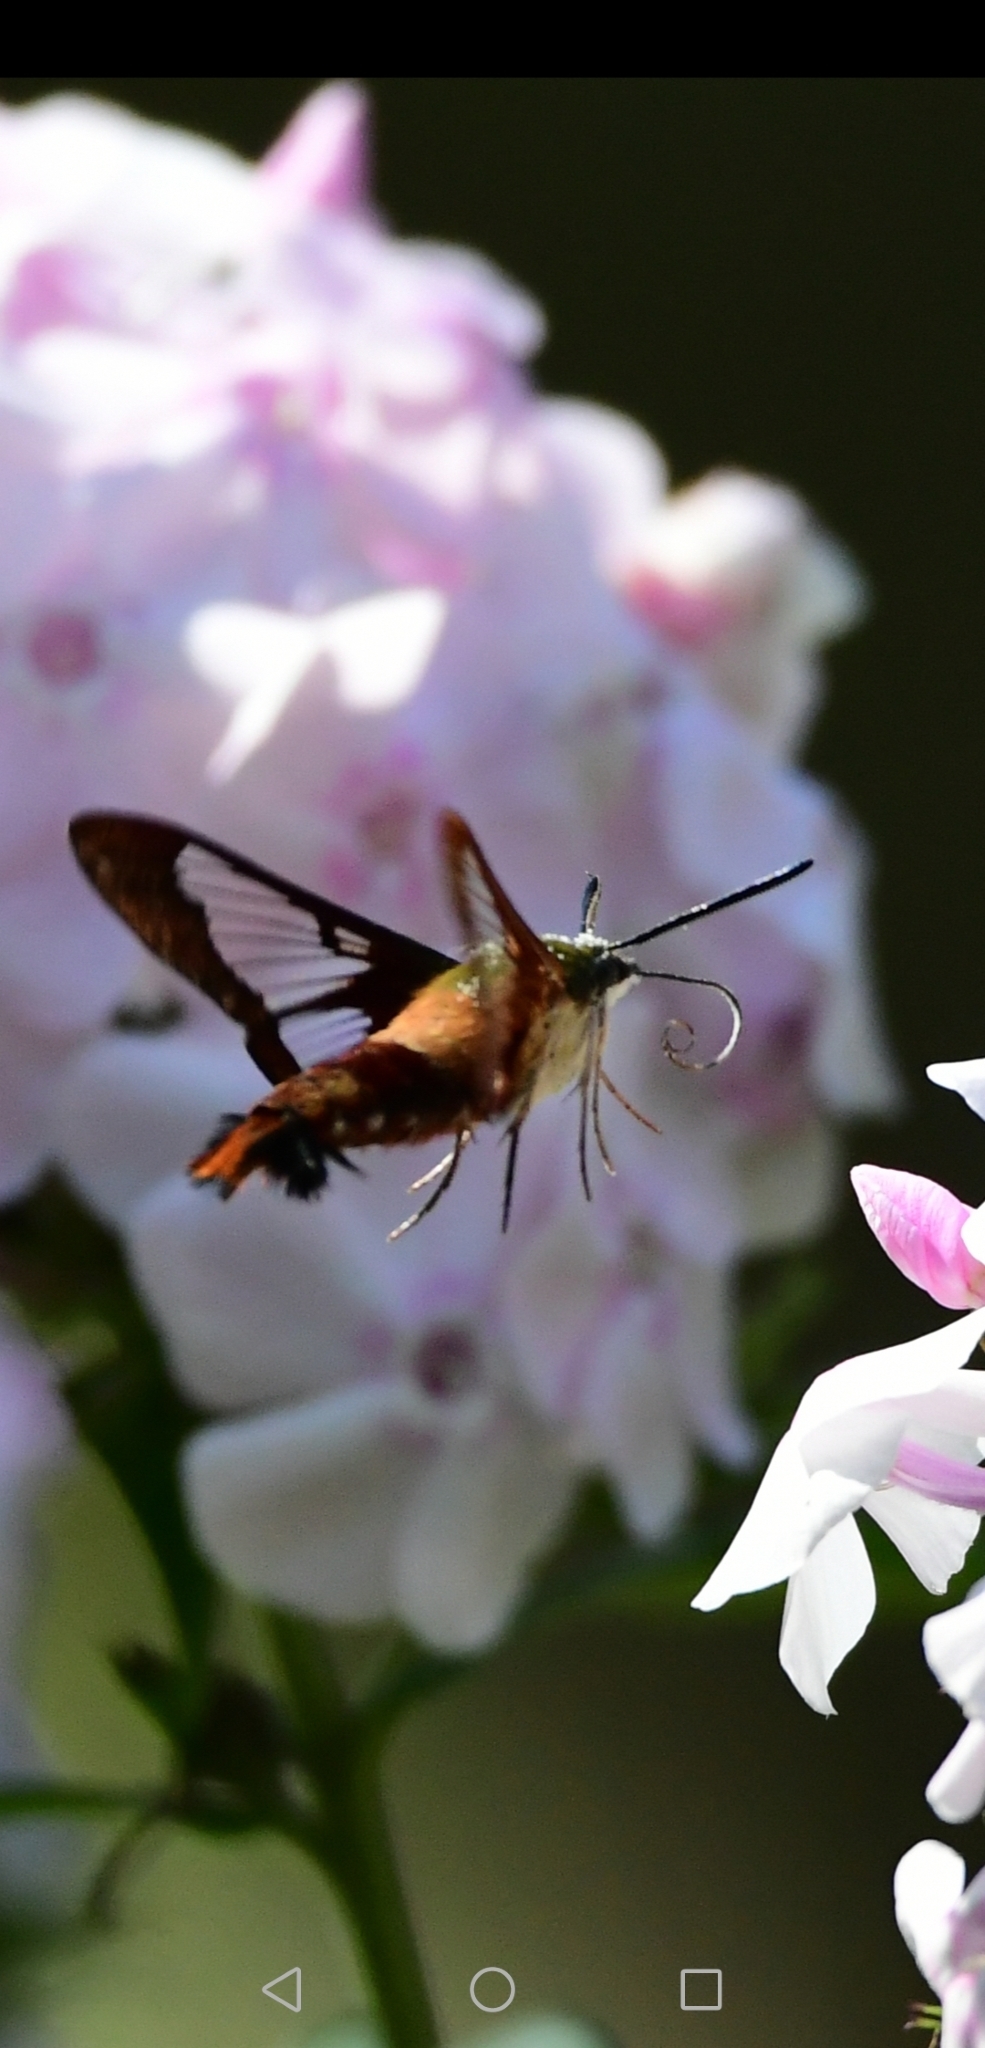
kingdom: Animalia
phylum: Arthropoda
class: Insecta
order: Lepidoptera
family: Sphingidae
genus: Hemaris
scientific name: Hemaris thysbe
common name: Common clear-wing
